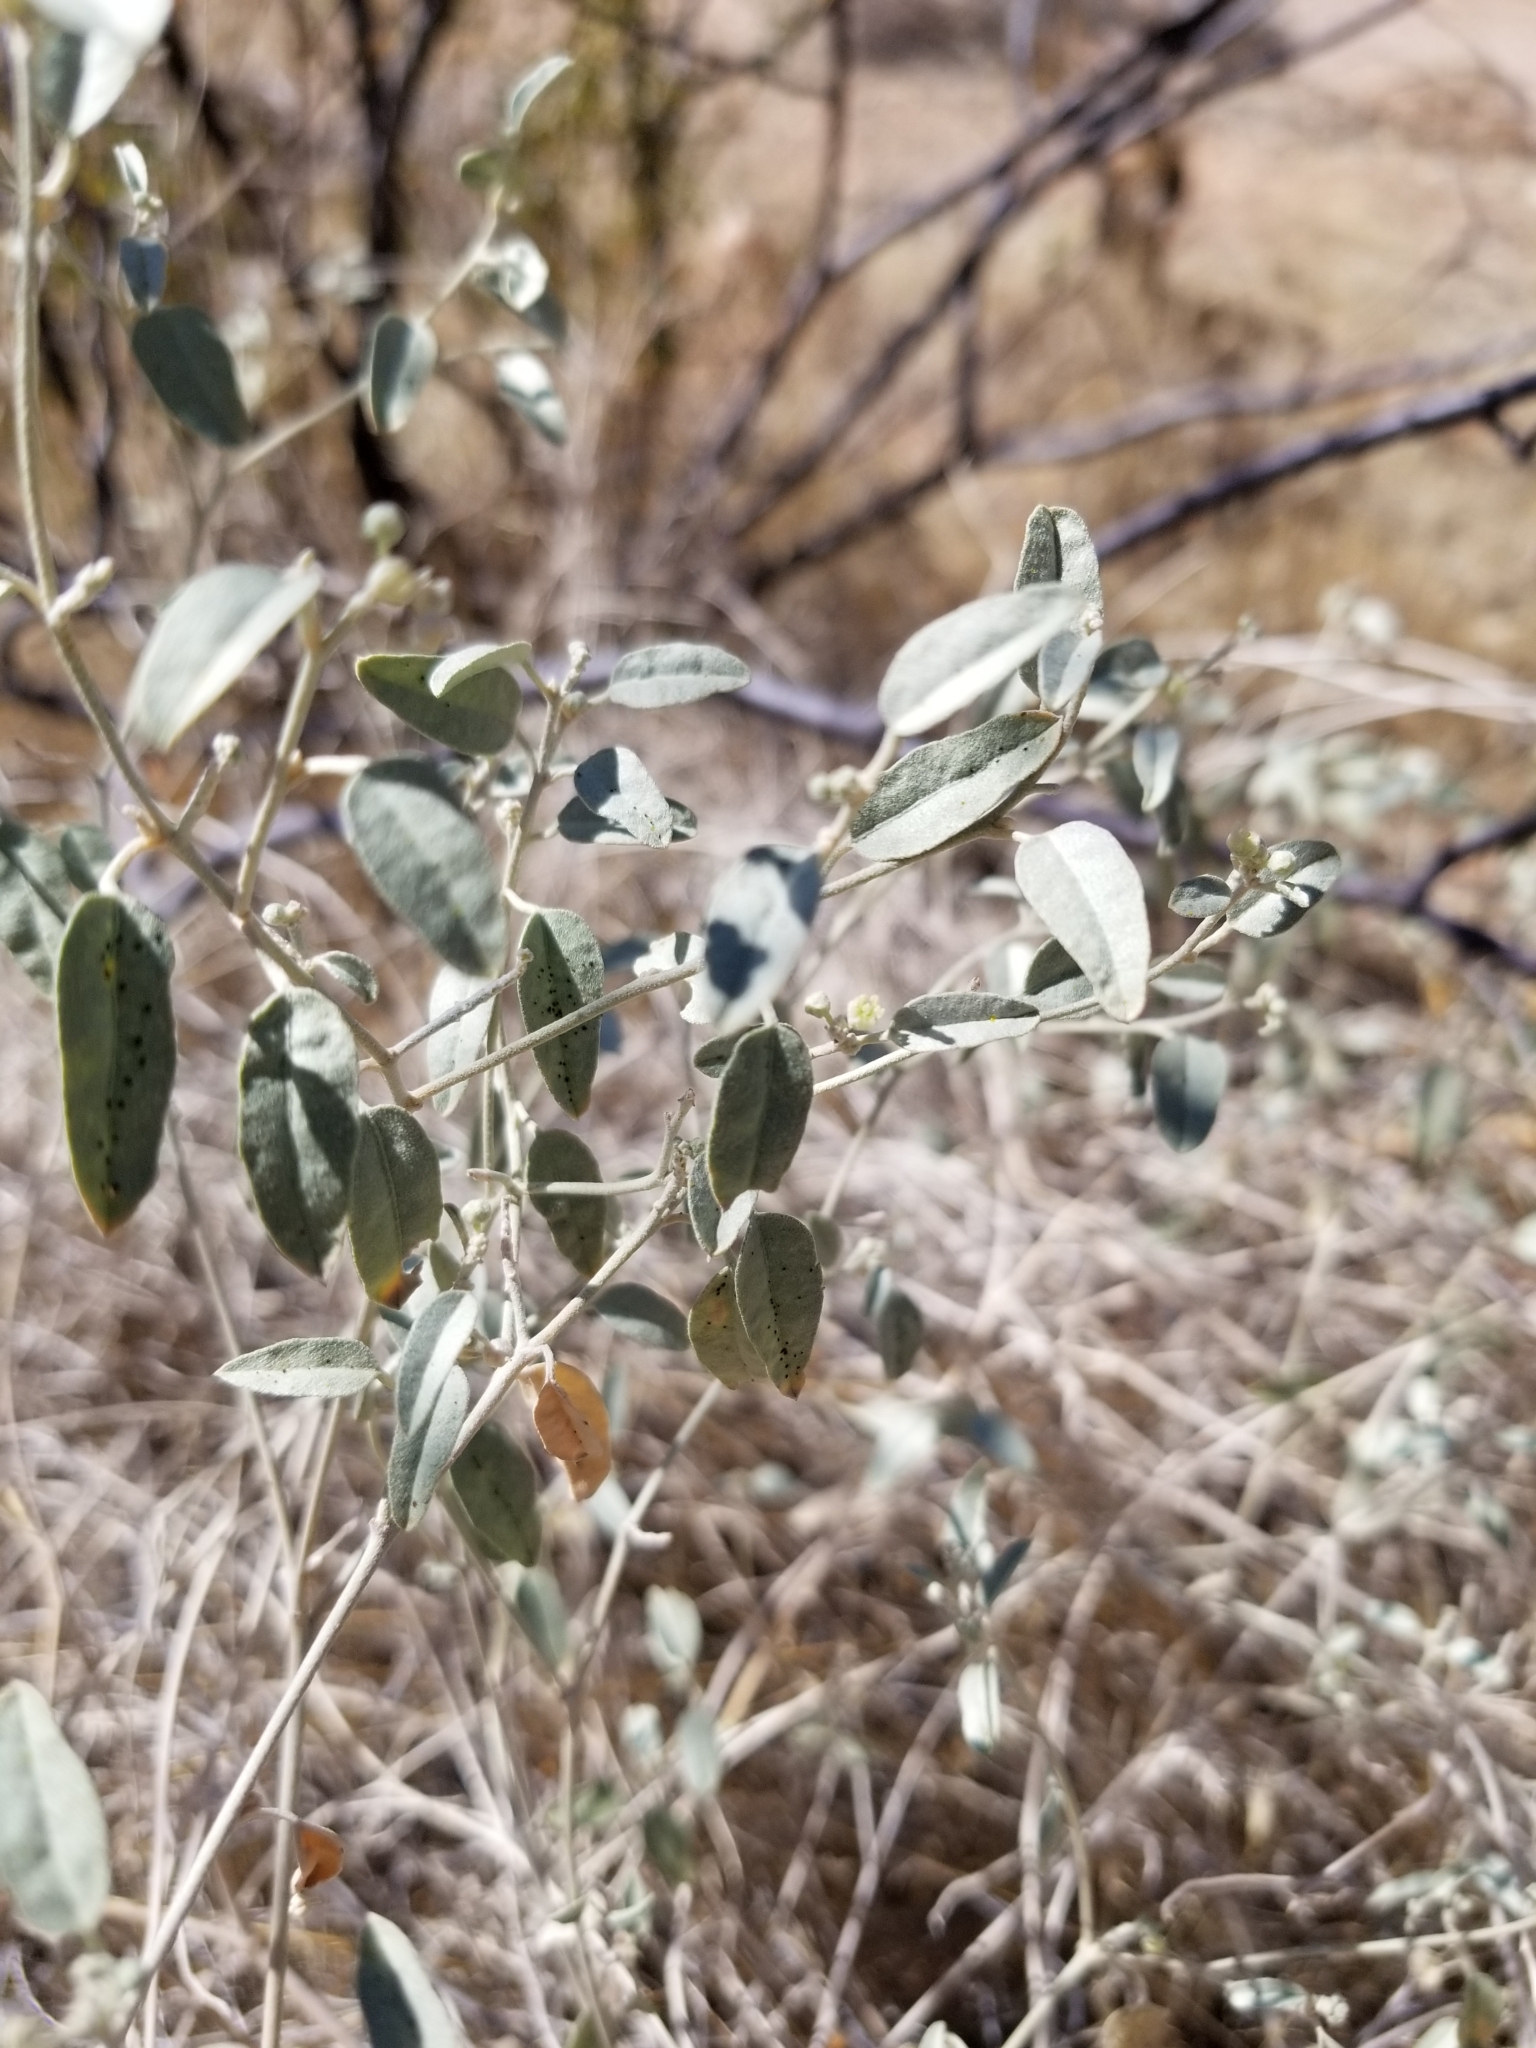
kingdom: Plantae
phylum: Tracheophyta
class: Magnoliopsida
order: Malpighiales
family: Euphorbiaceae
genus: Croton
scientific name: Croton californicus
